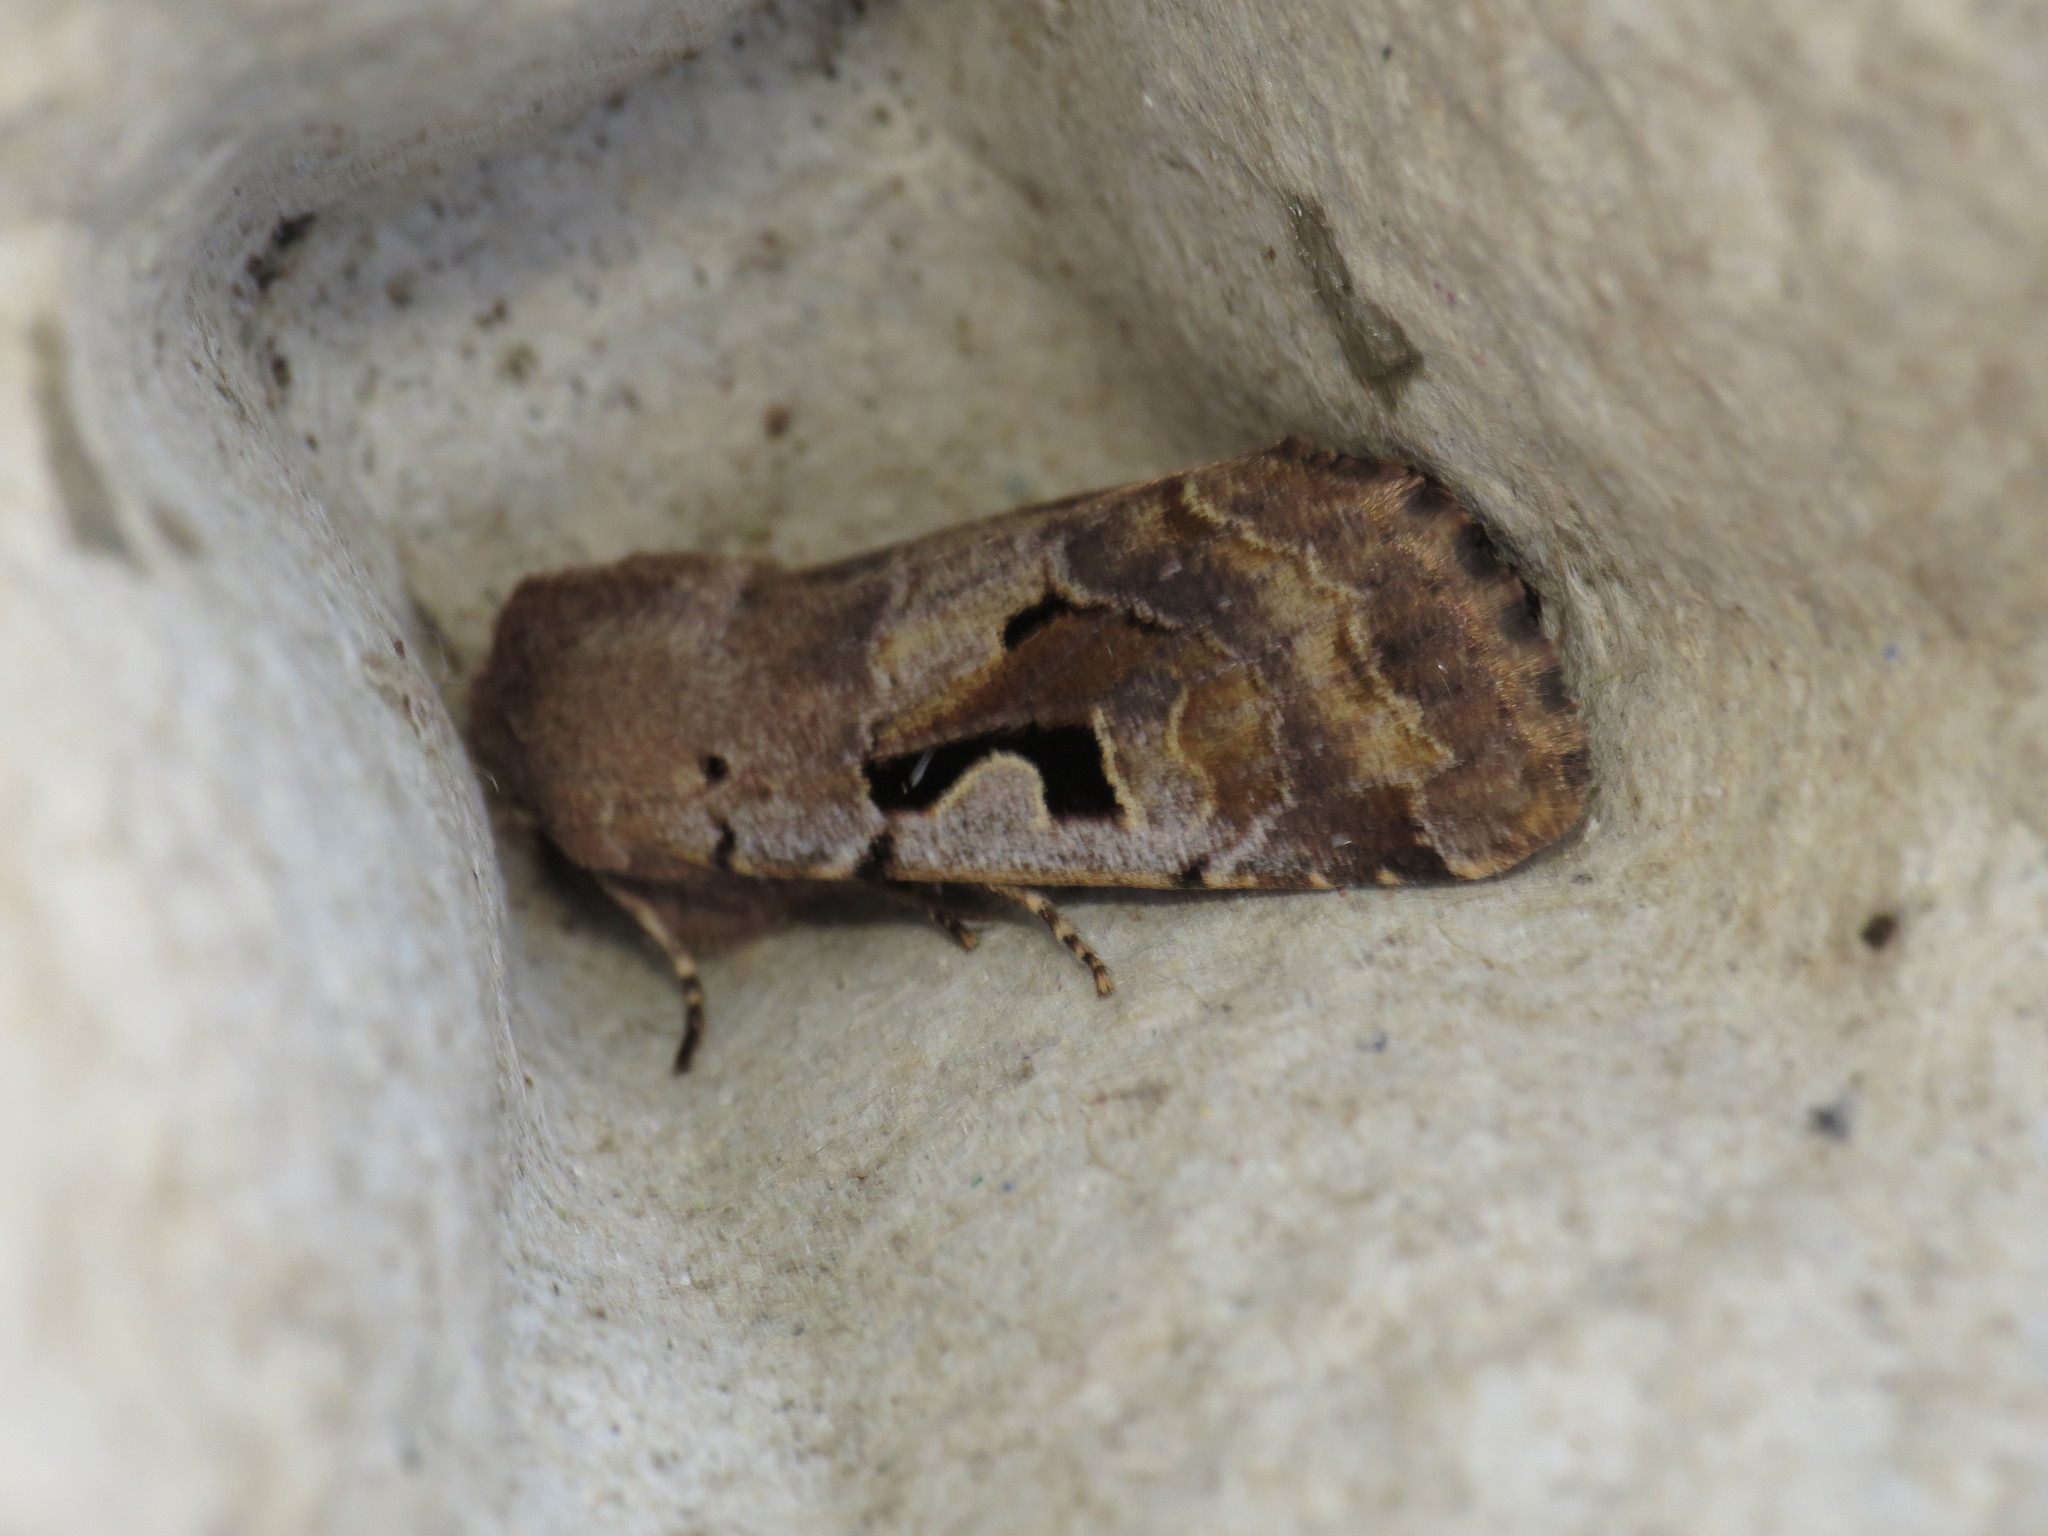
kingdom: Animalia
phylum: Arthropoda
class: Insecta
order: Lepidoptera
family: Noctuidae
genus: Orthosia
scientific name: Orthosia gothica
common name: Hebrew character
